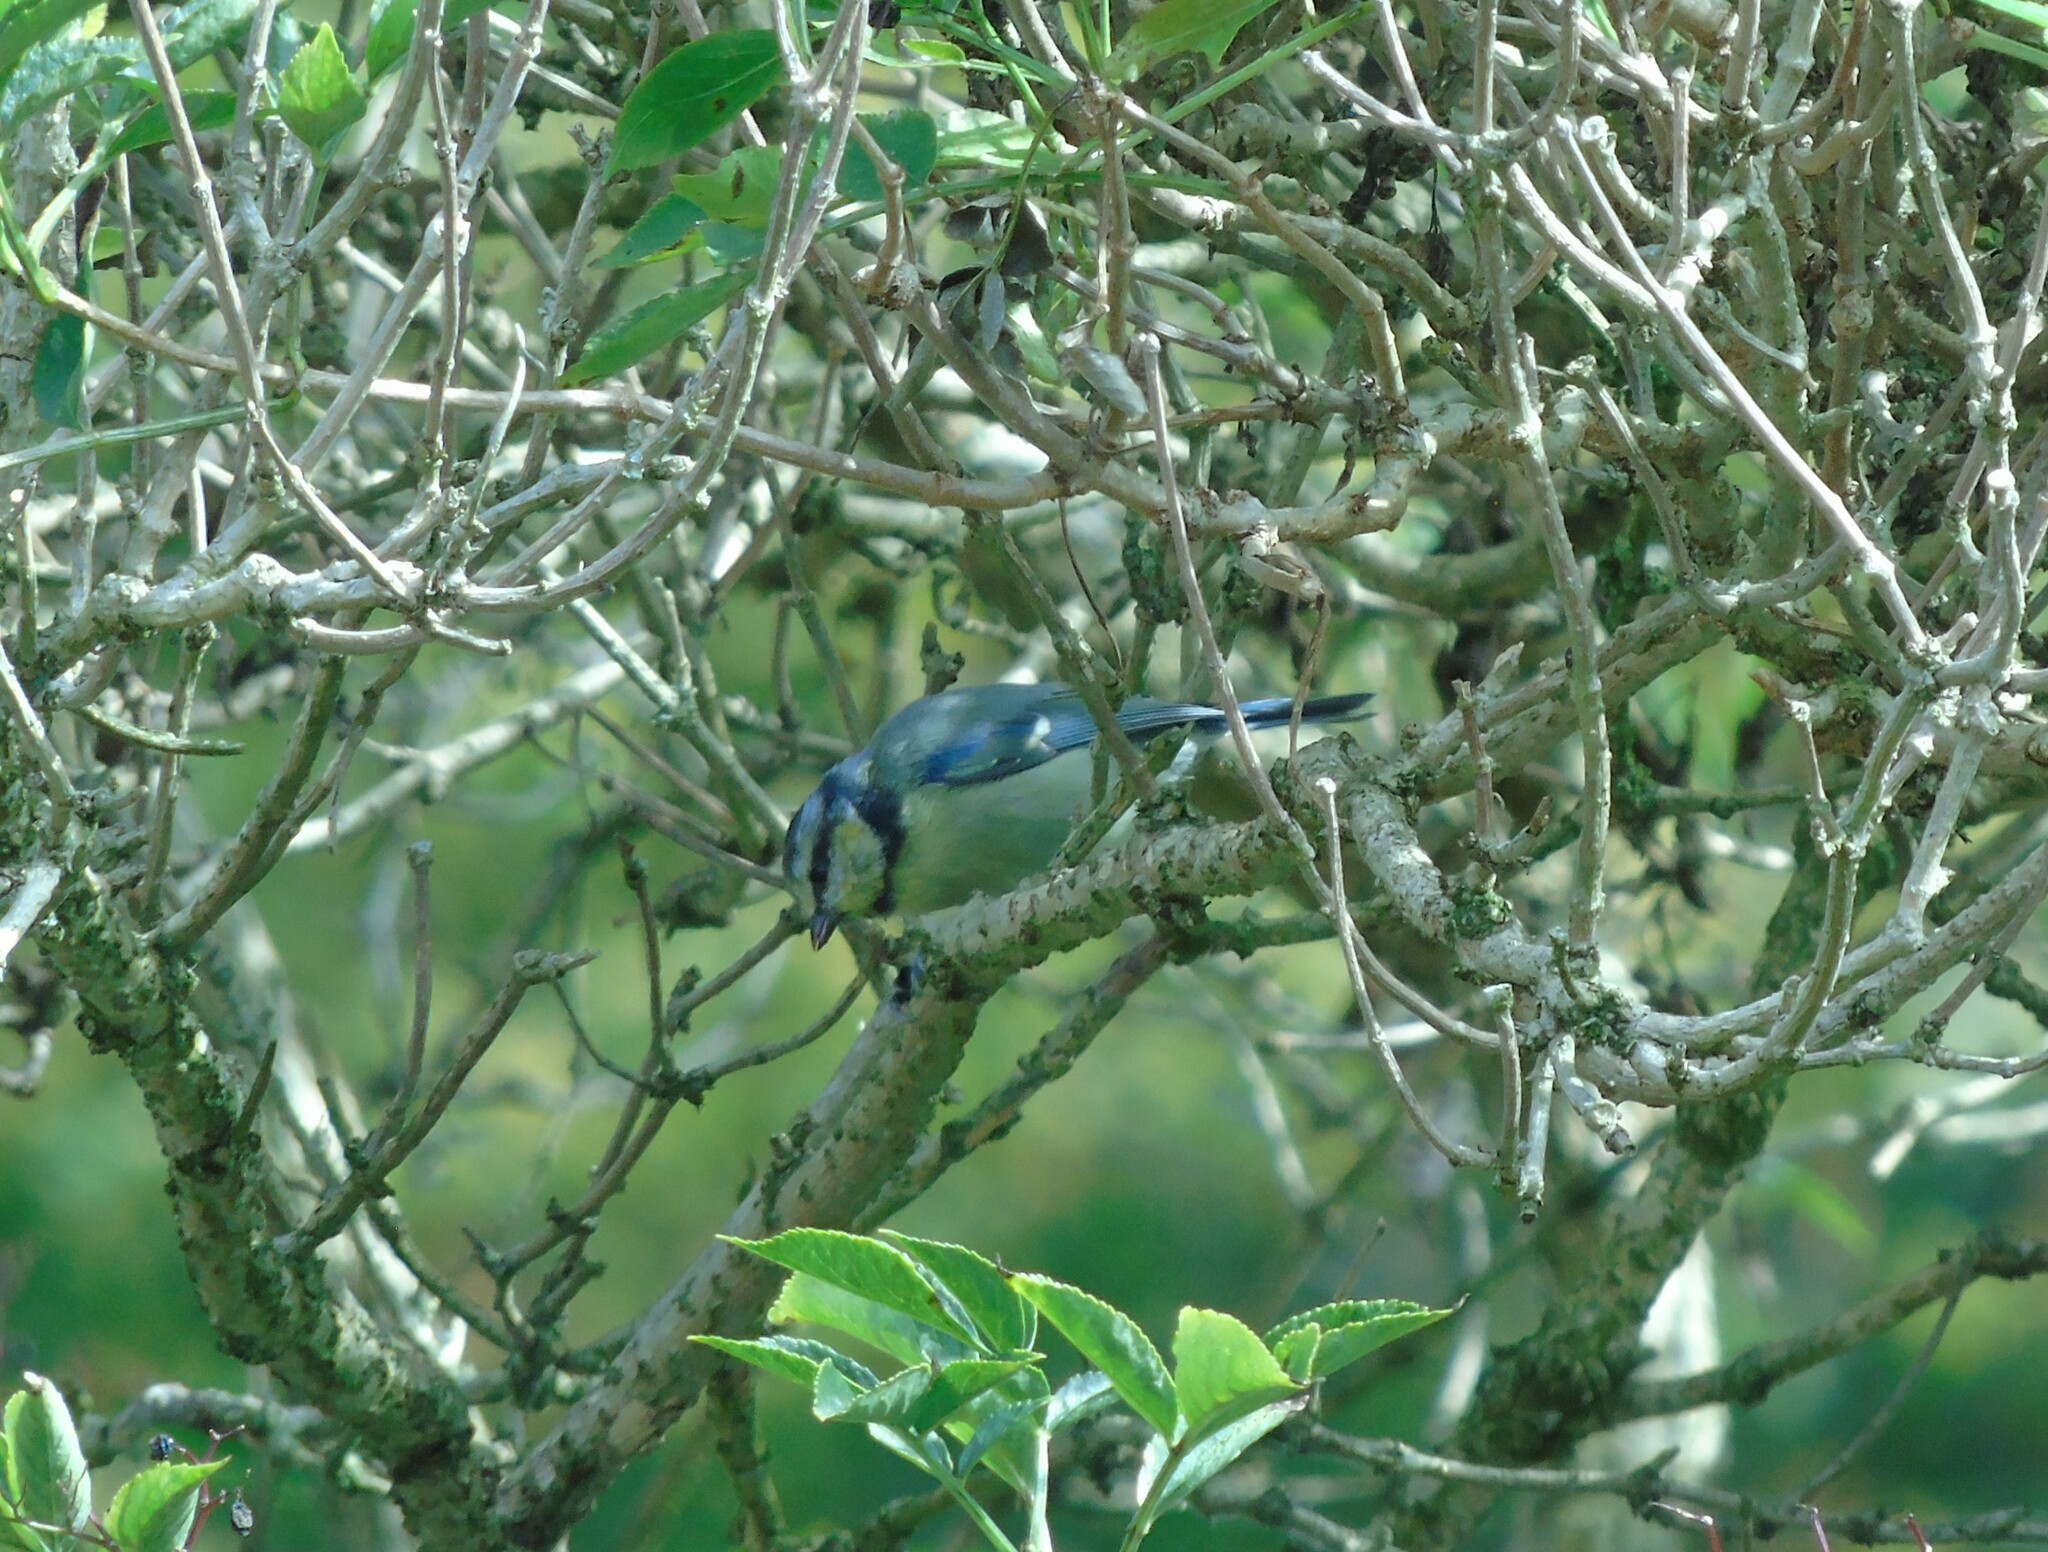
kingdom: Animalia
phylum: Chordata
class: Aves
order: Passeriformes
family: Paridae
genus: Cyanistes
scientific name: Cyanistes caeruleus
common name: Eurasian blue tit
